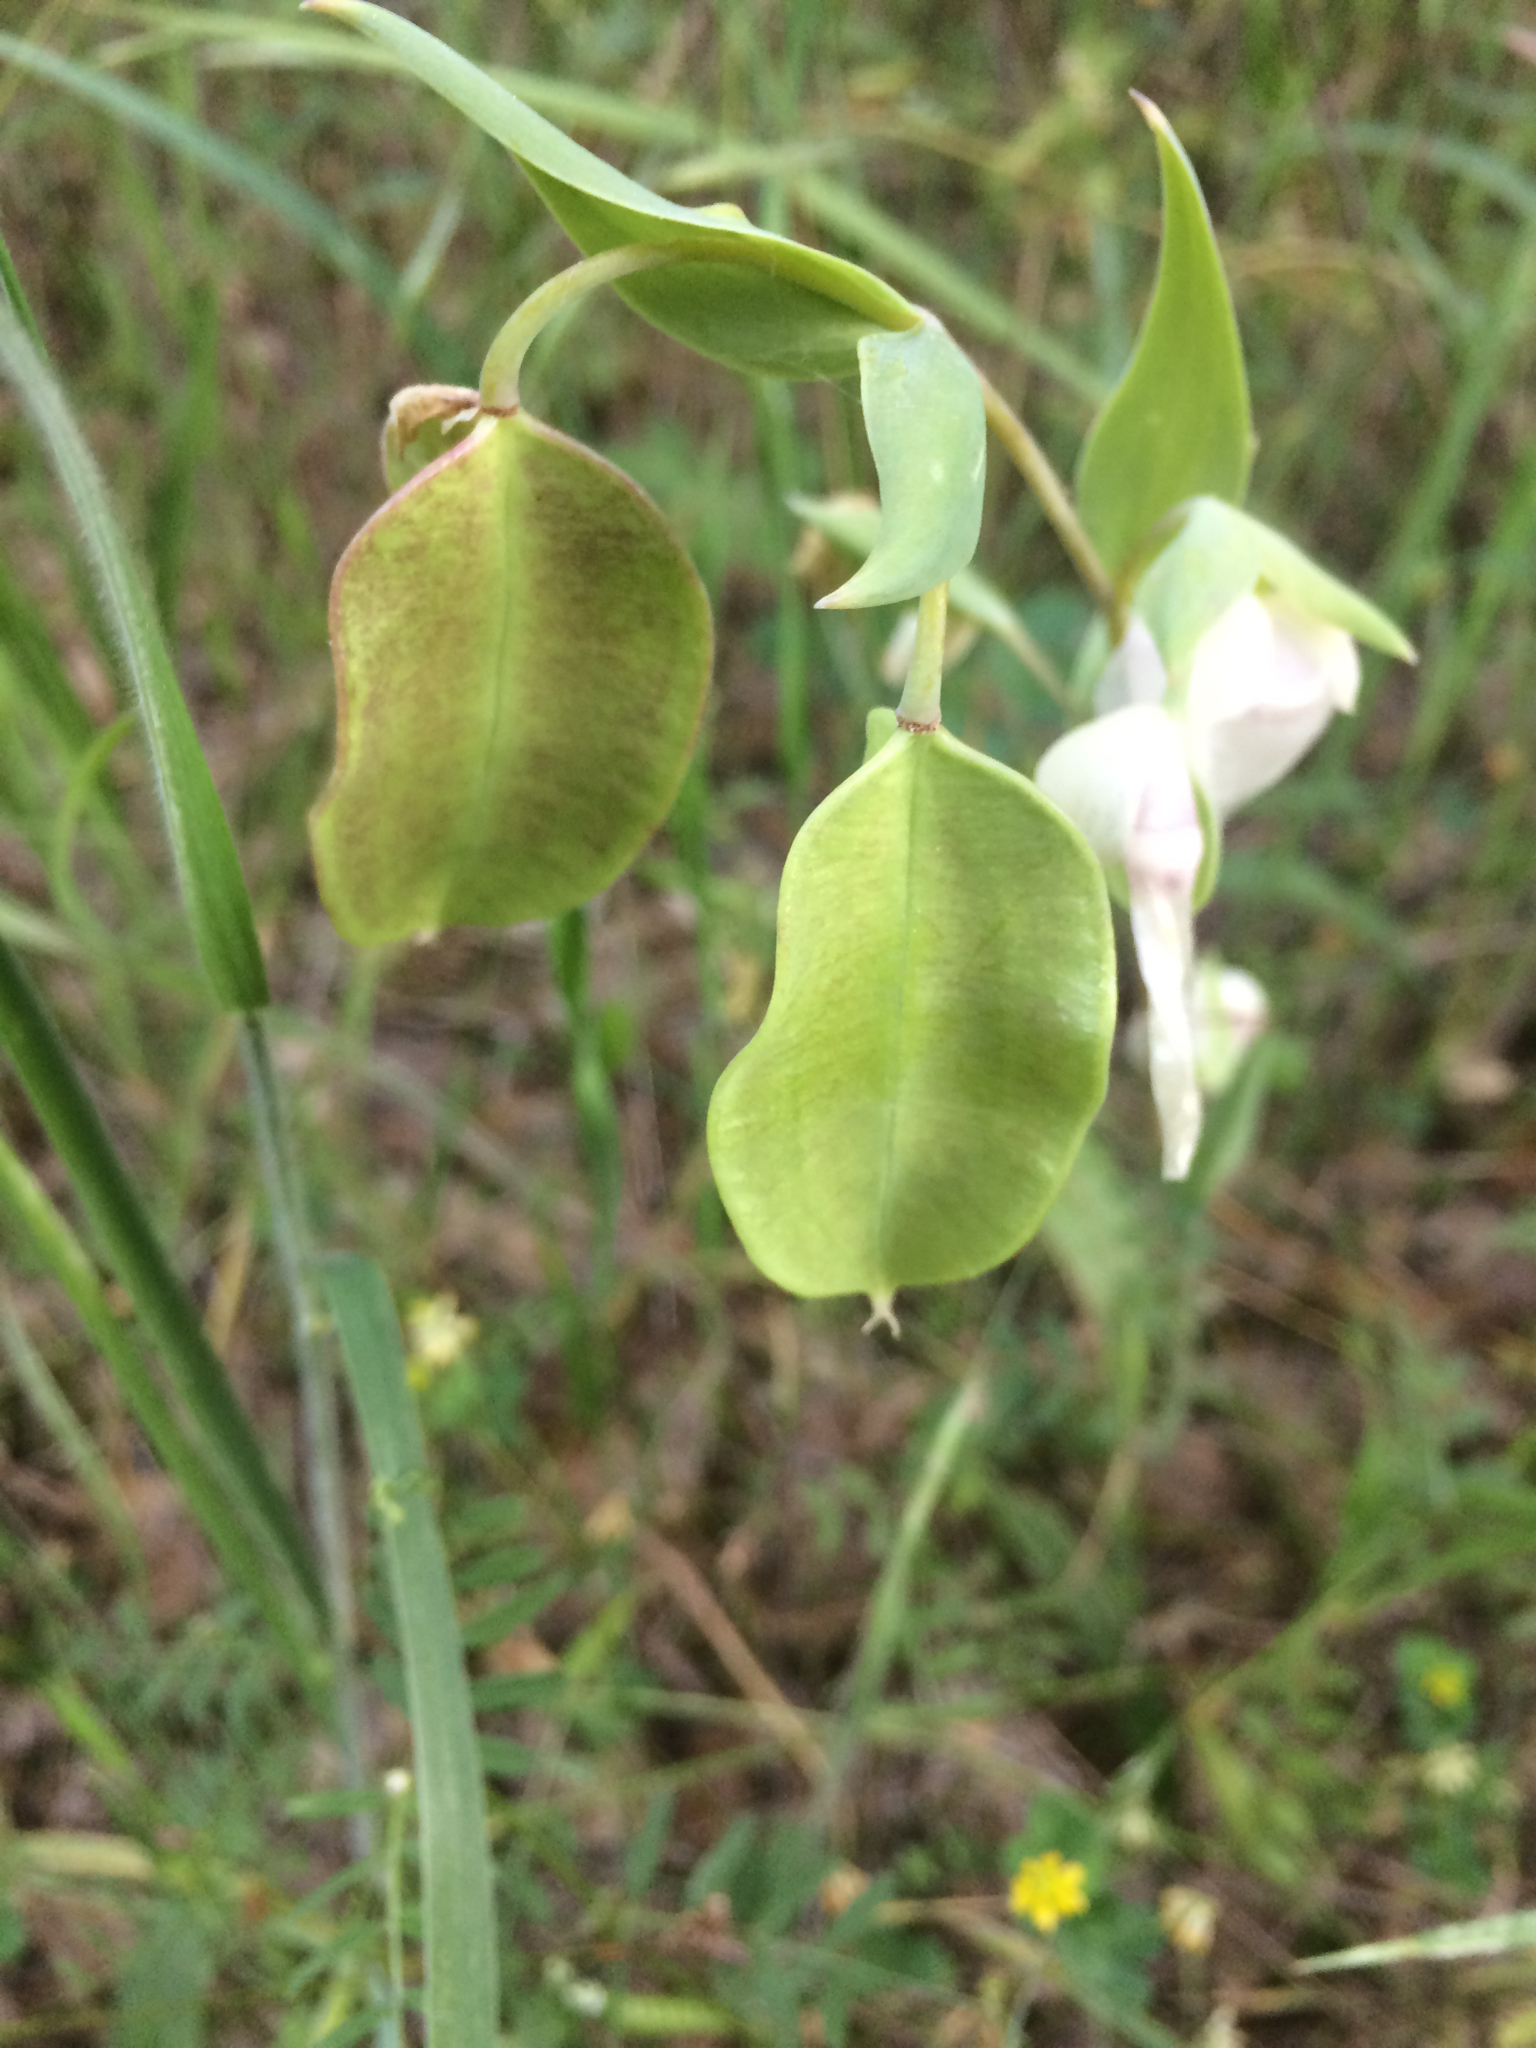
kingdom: Plantae
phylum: Tracheophyta
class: Liliopsida
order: Liliales
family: Liliaceae
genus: Calochortus
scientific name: Calochortus albus
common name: Fairy-lantern
